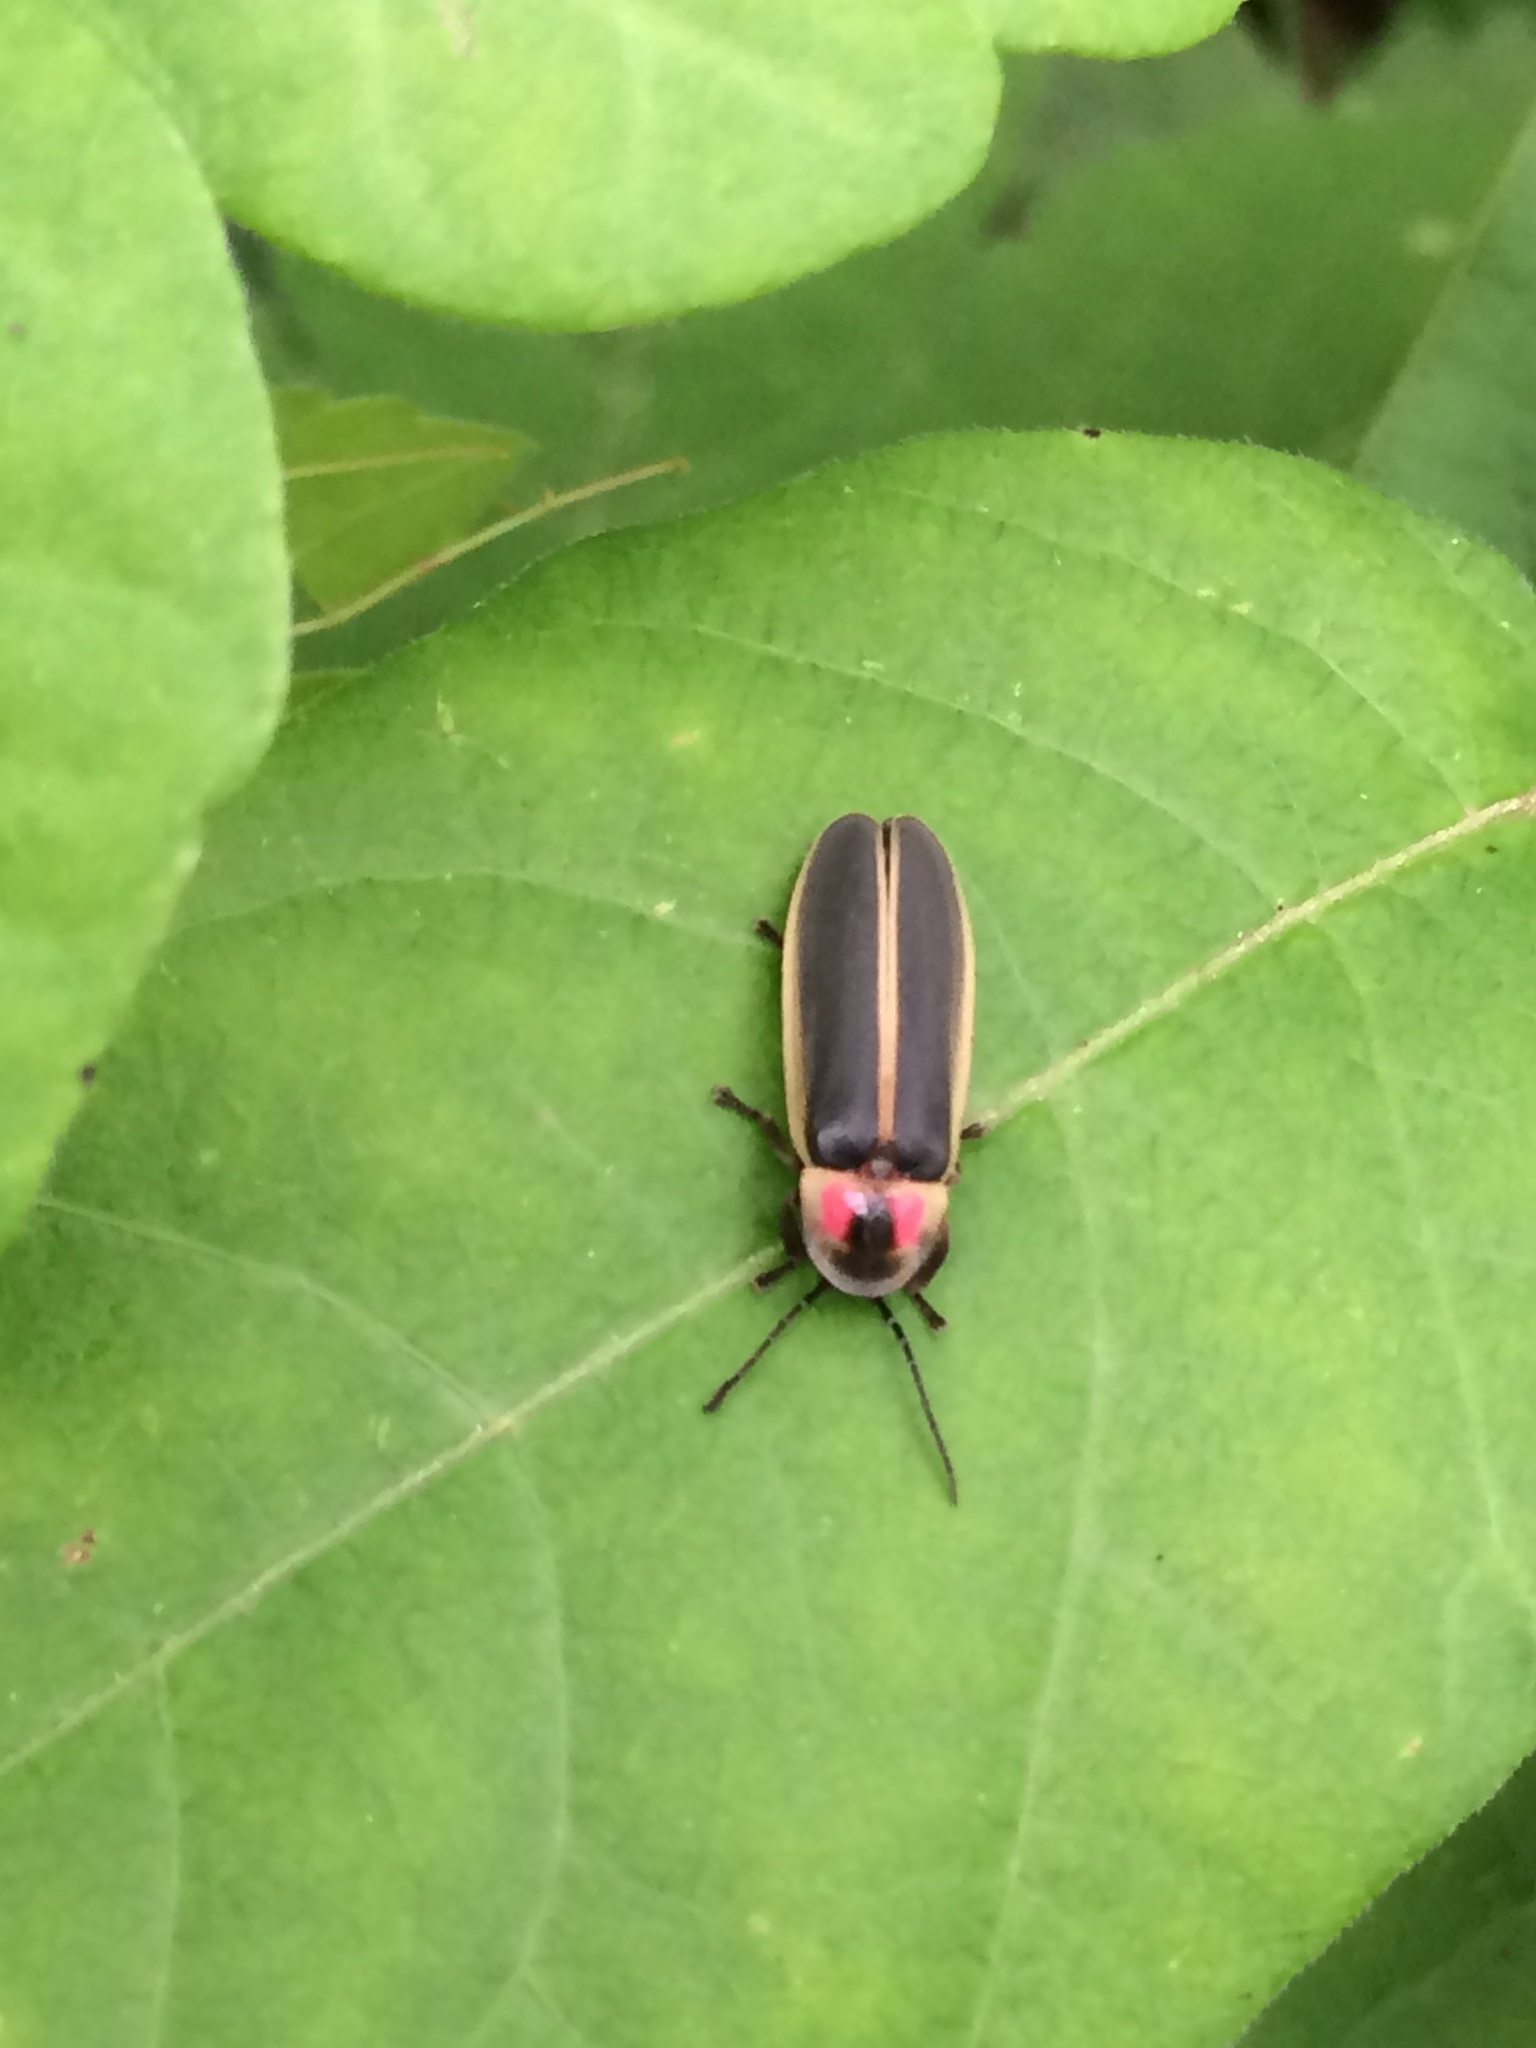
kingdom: Animalia
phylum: Arthropoda
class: Insecta
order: Coleoptera
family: Lampyridae
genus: Photinus
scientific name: Photinus pyralis
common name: Big dipper firefly
